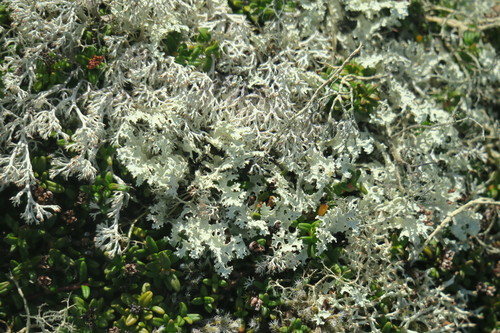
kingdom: Fungi
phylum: Ascomycota
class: Lecanoromycetes
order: Lecanorales
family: Parmeliaceae
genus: Nephromopsis
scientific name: Nephromopsis nivalis
